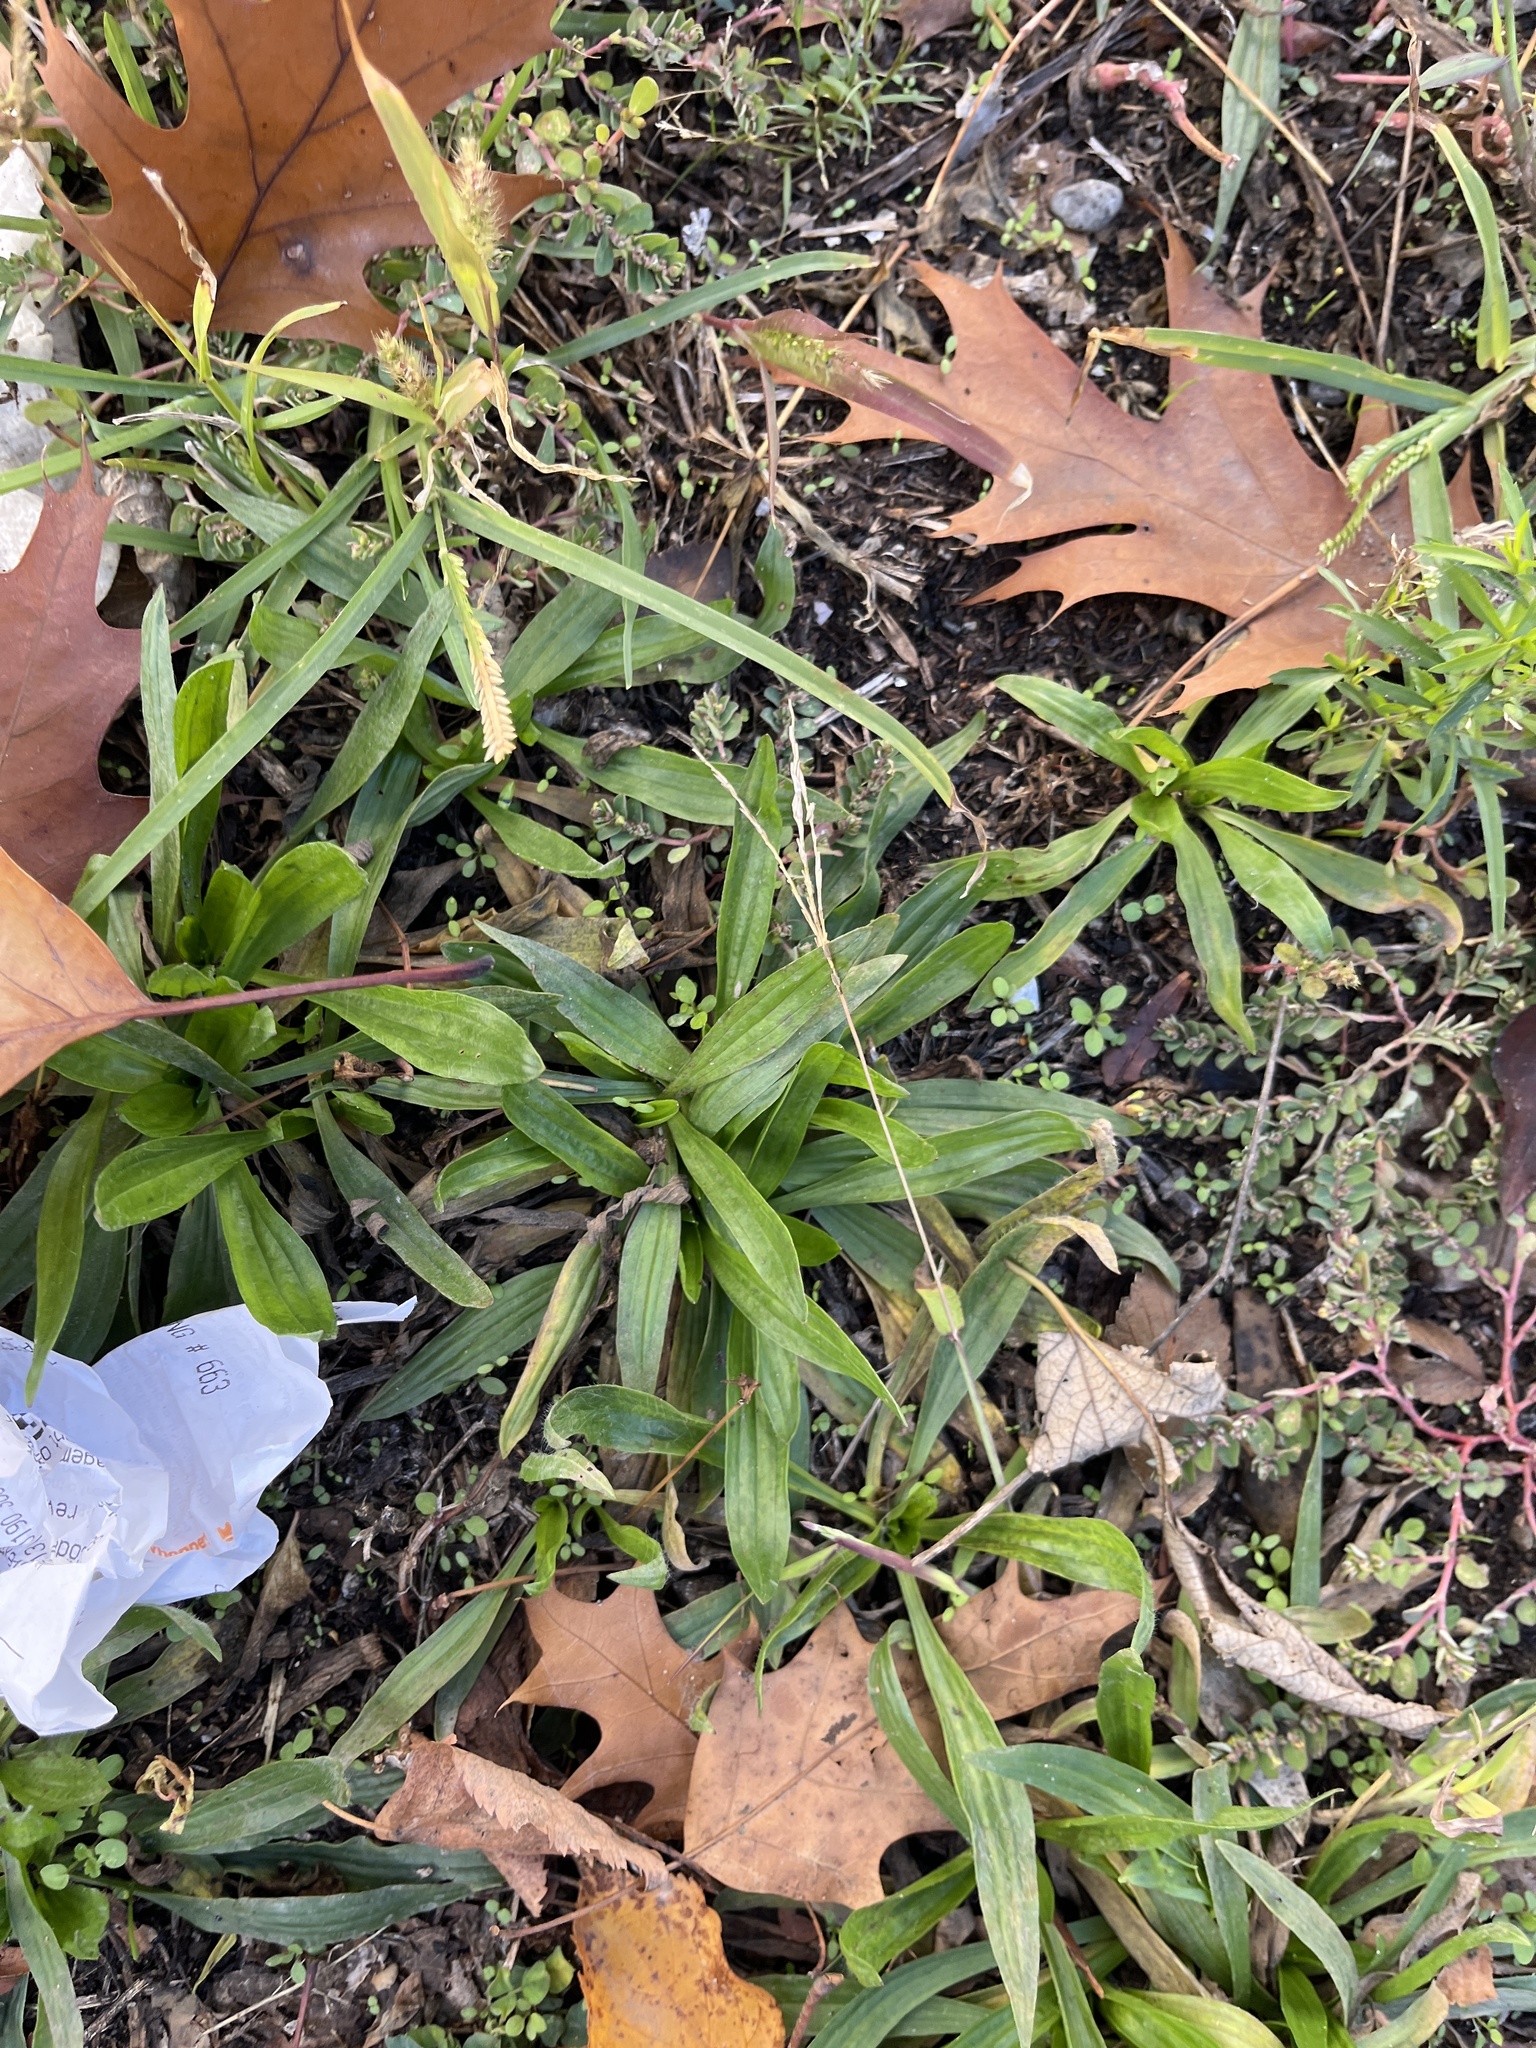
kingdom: Plantae
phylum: Tracheophyta
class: Magnoliopsida
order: Lamiales
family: Plantaginaceae
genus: Plantago
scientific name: Plantago lanceolata
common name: Ribwort plantain
